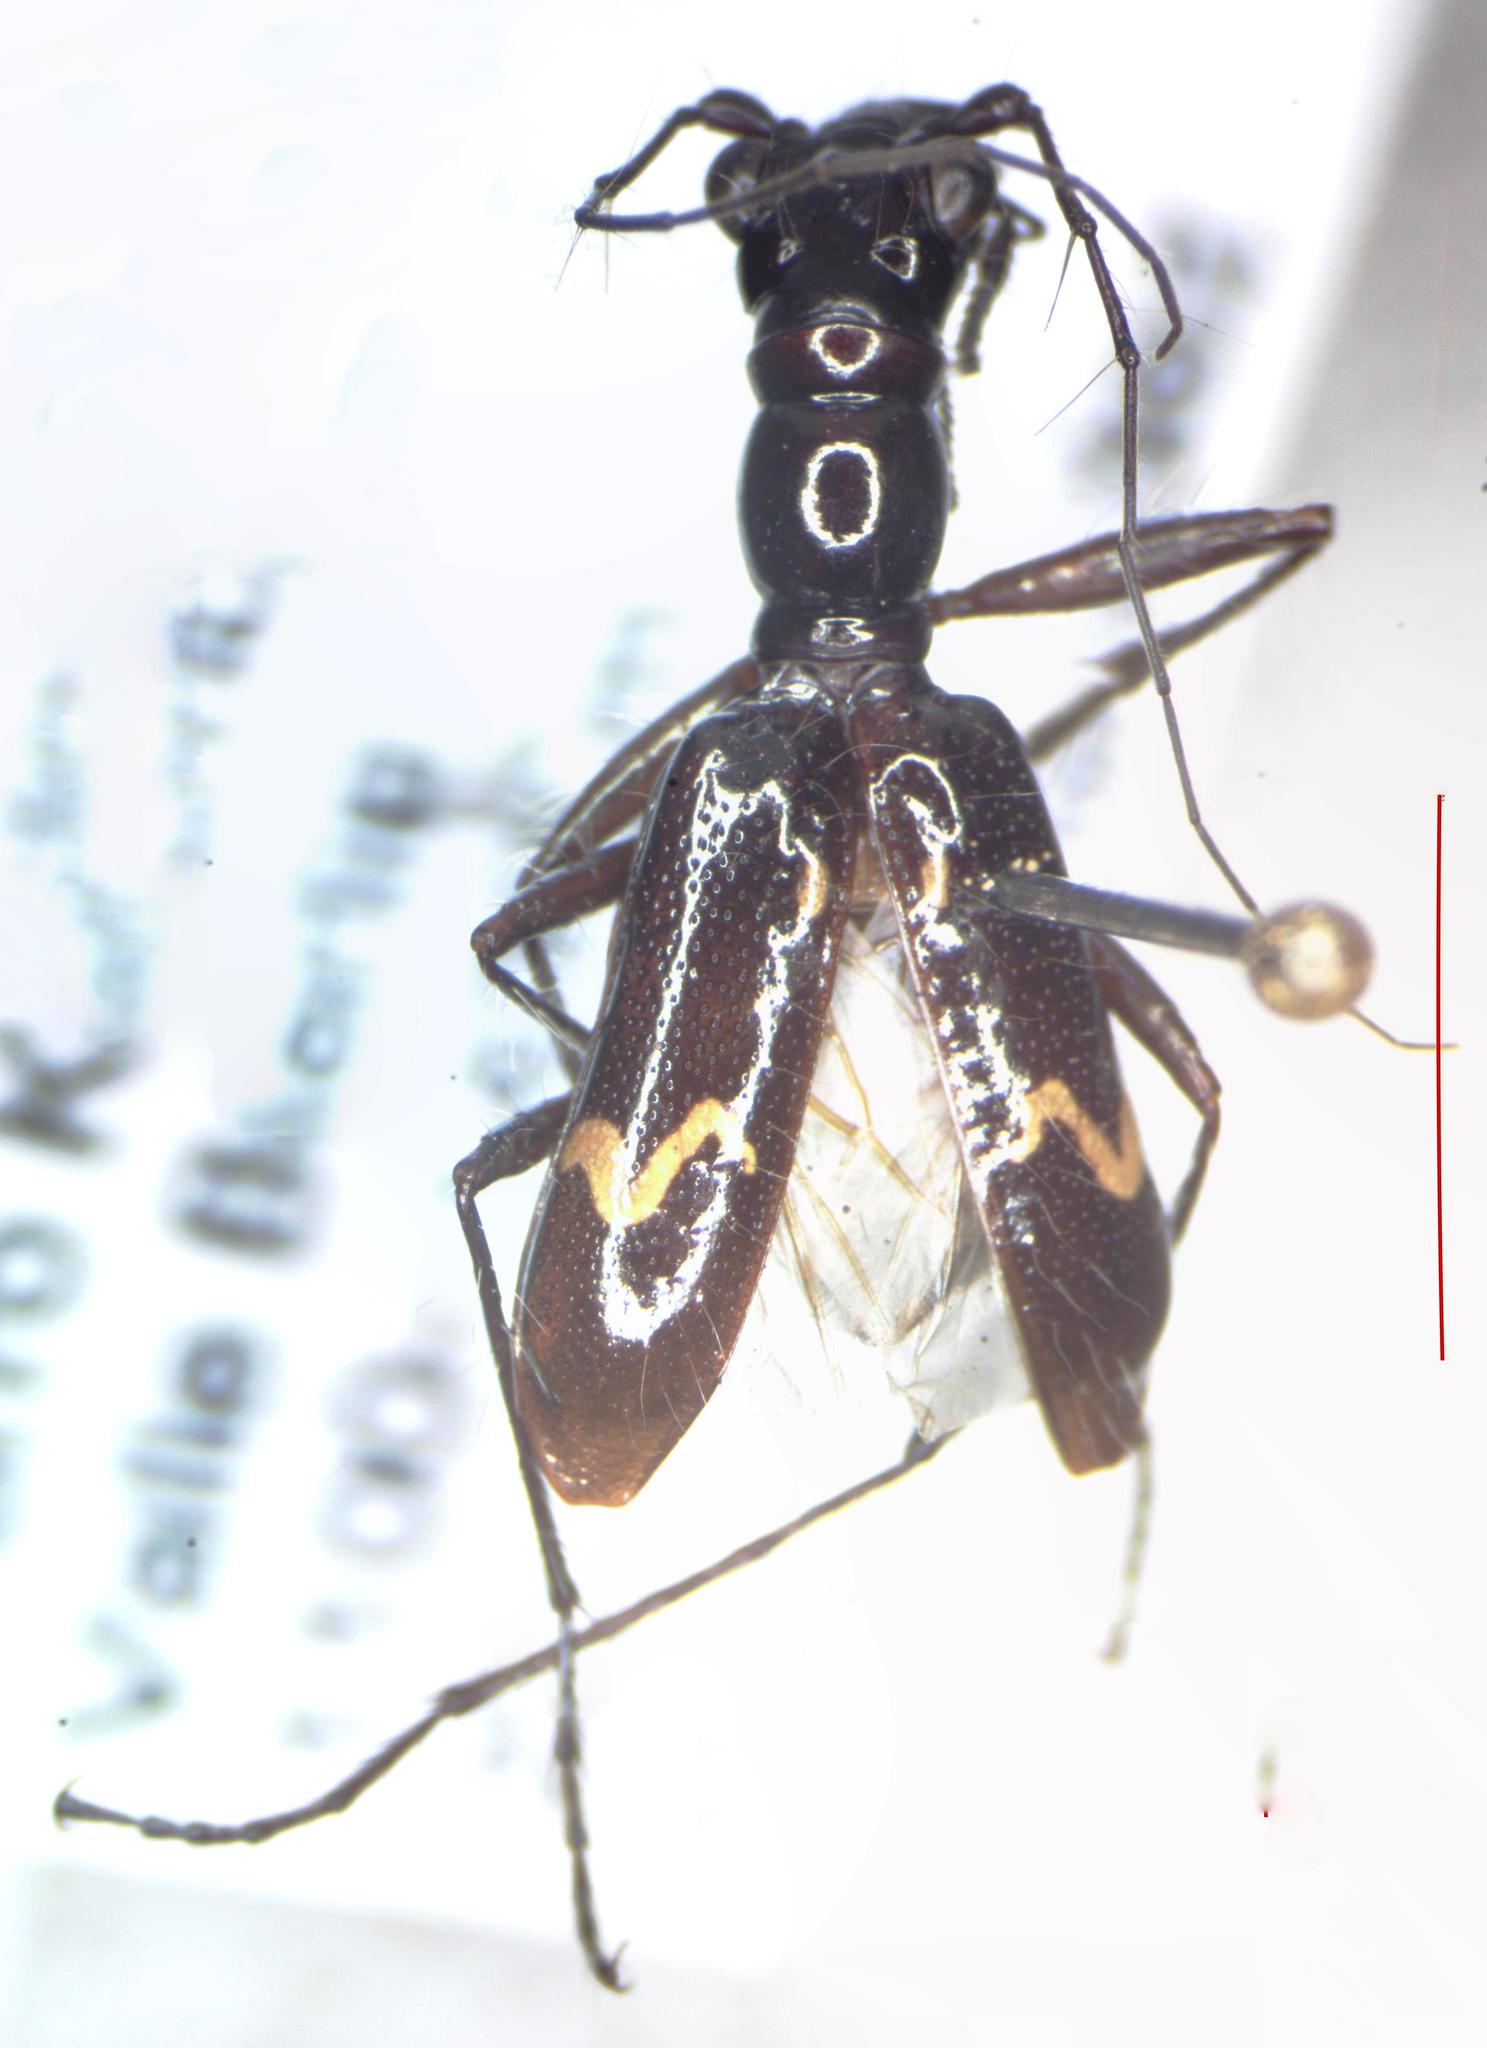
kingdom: Animalia
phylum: Arthropoda
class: Insecta
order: Coleoptera
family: Carabidae
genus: Ctenostoma
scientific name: Ctenostoma maculicorne
